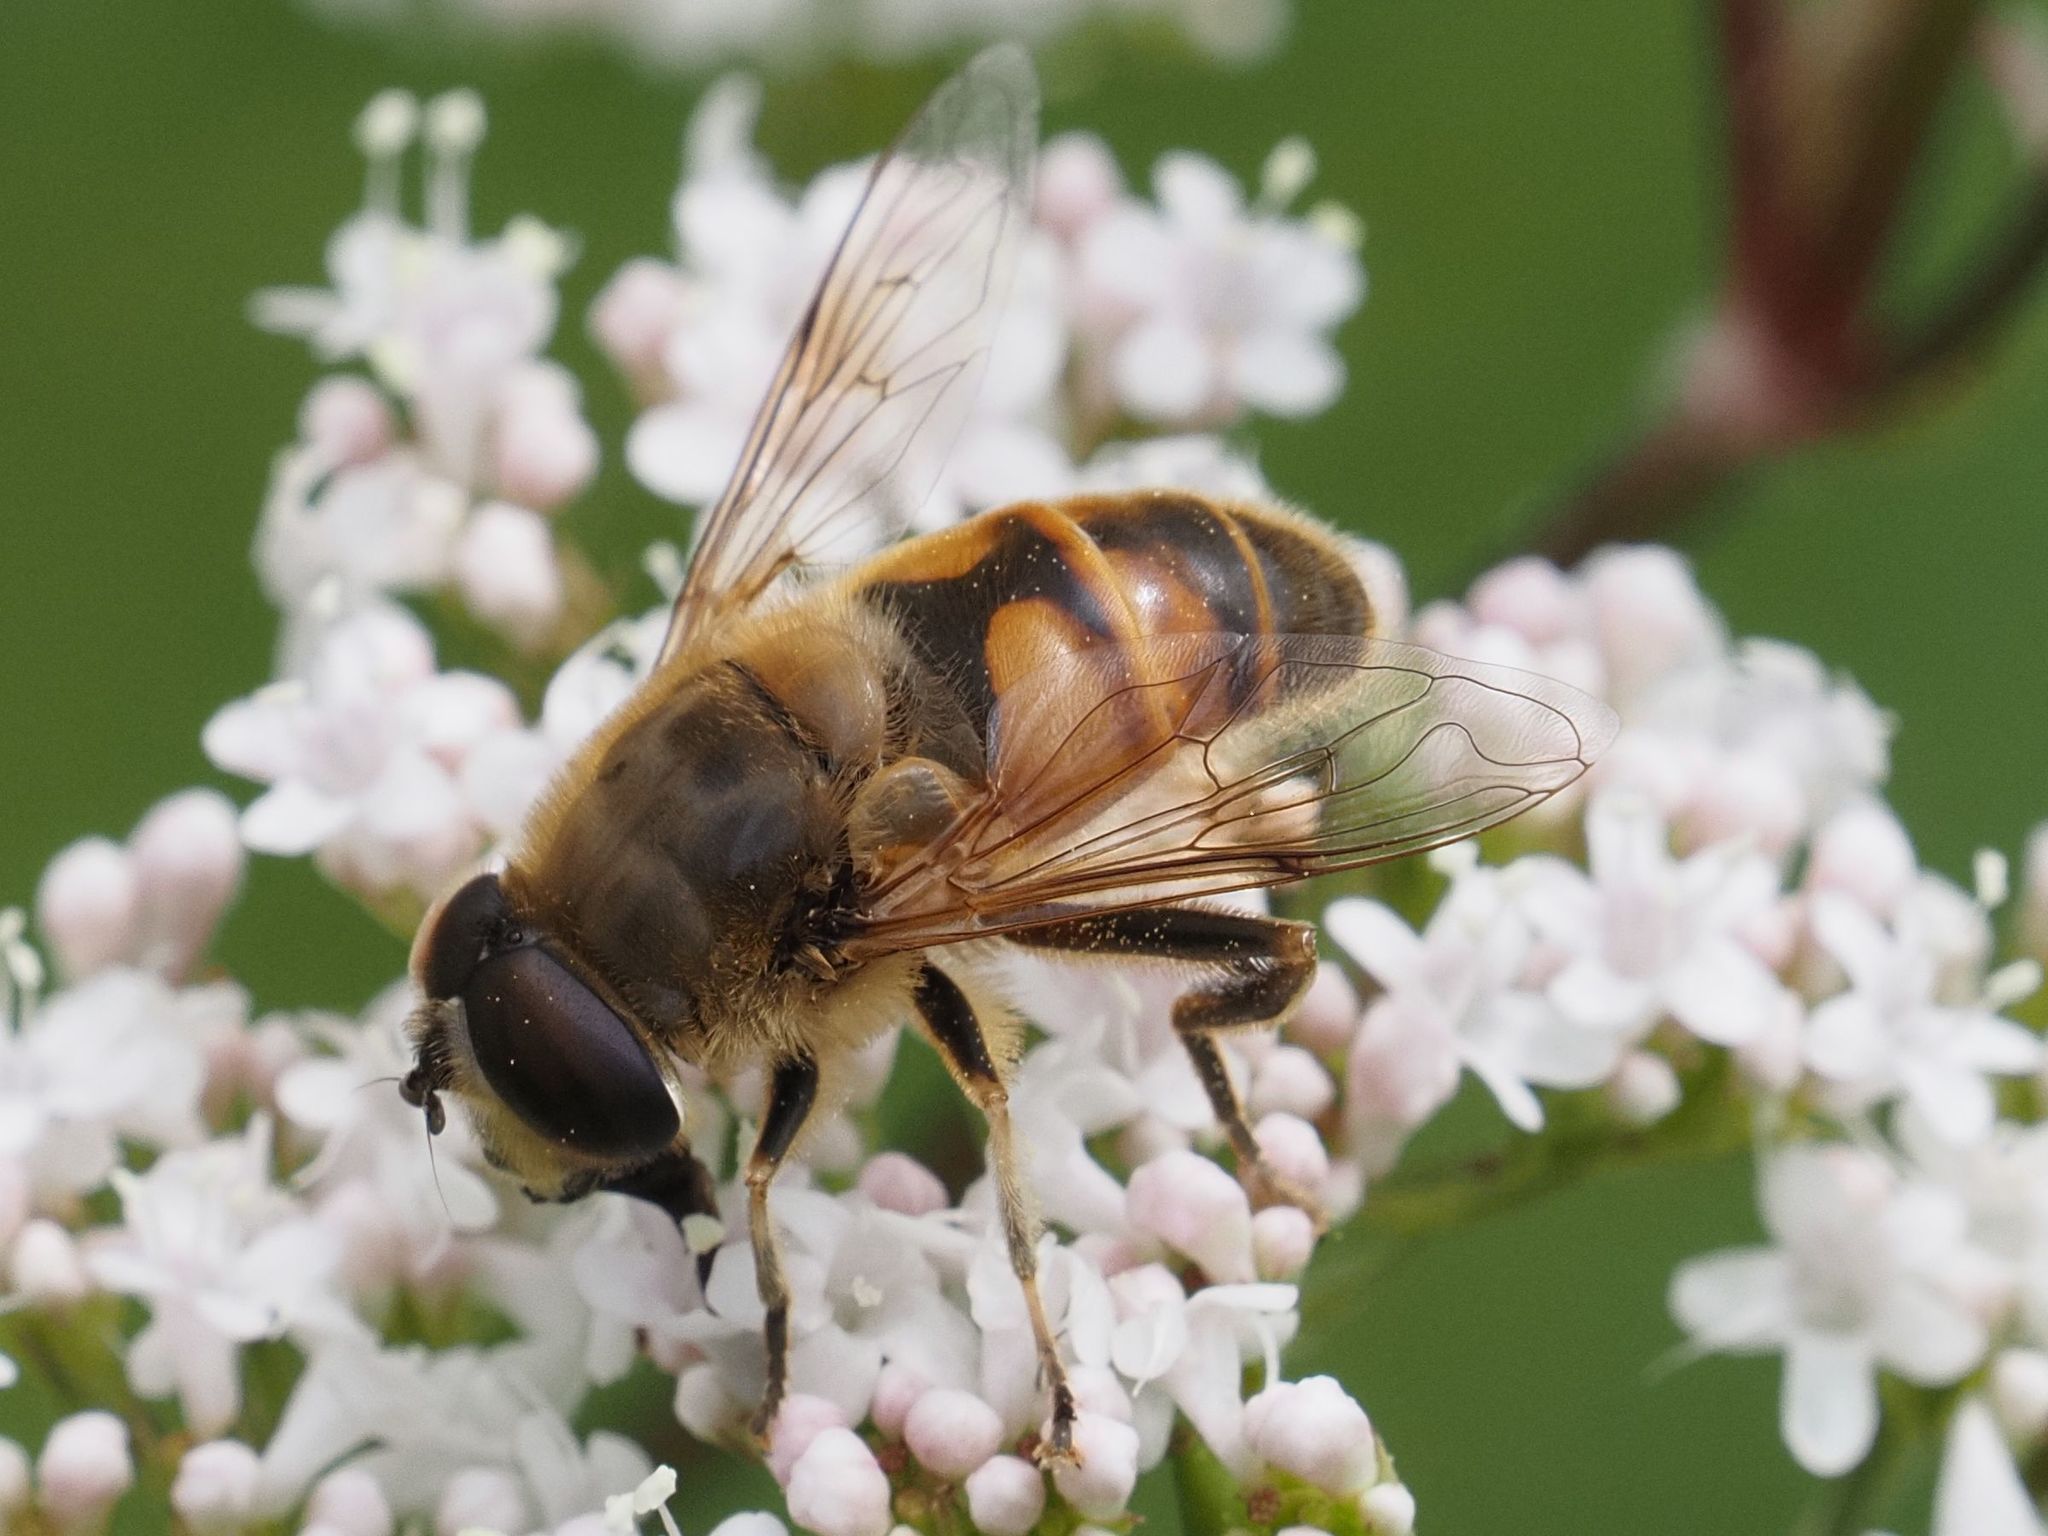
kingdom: Animalia
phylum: Arthropoda
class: Insecta
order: Diptera
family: Syrphidae
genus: Eristalis
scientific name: Eristalis tenax
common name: Drone fly
